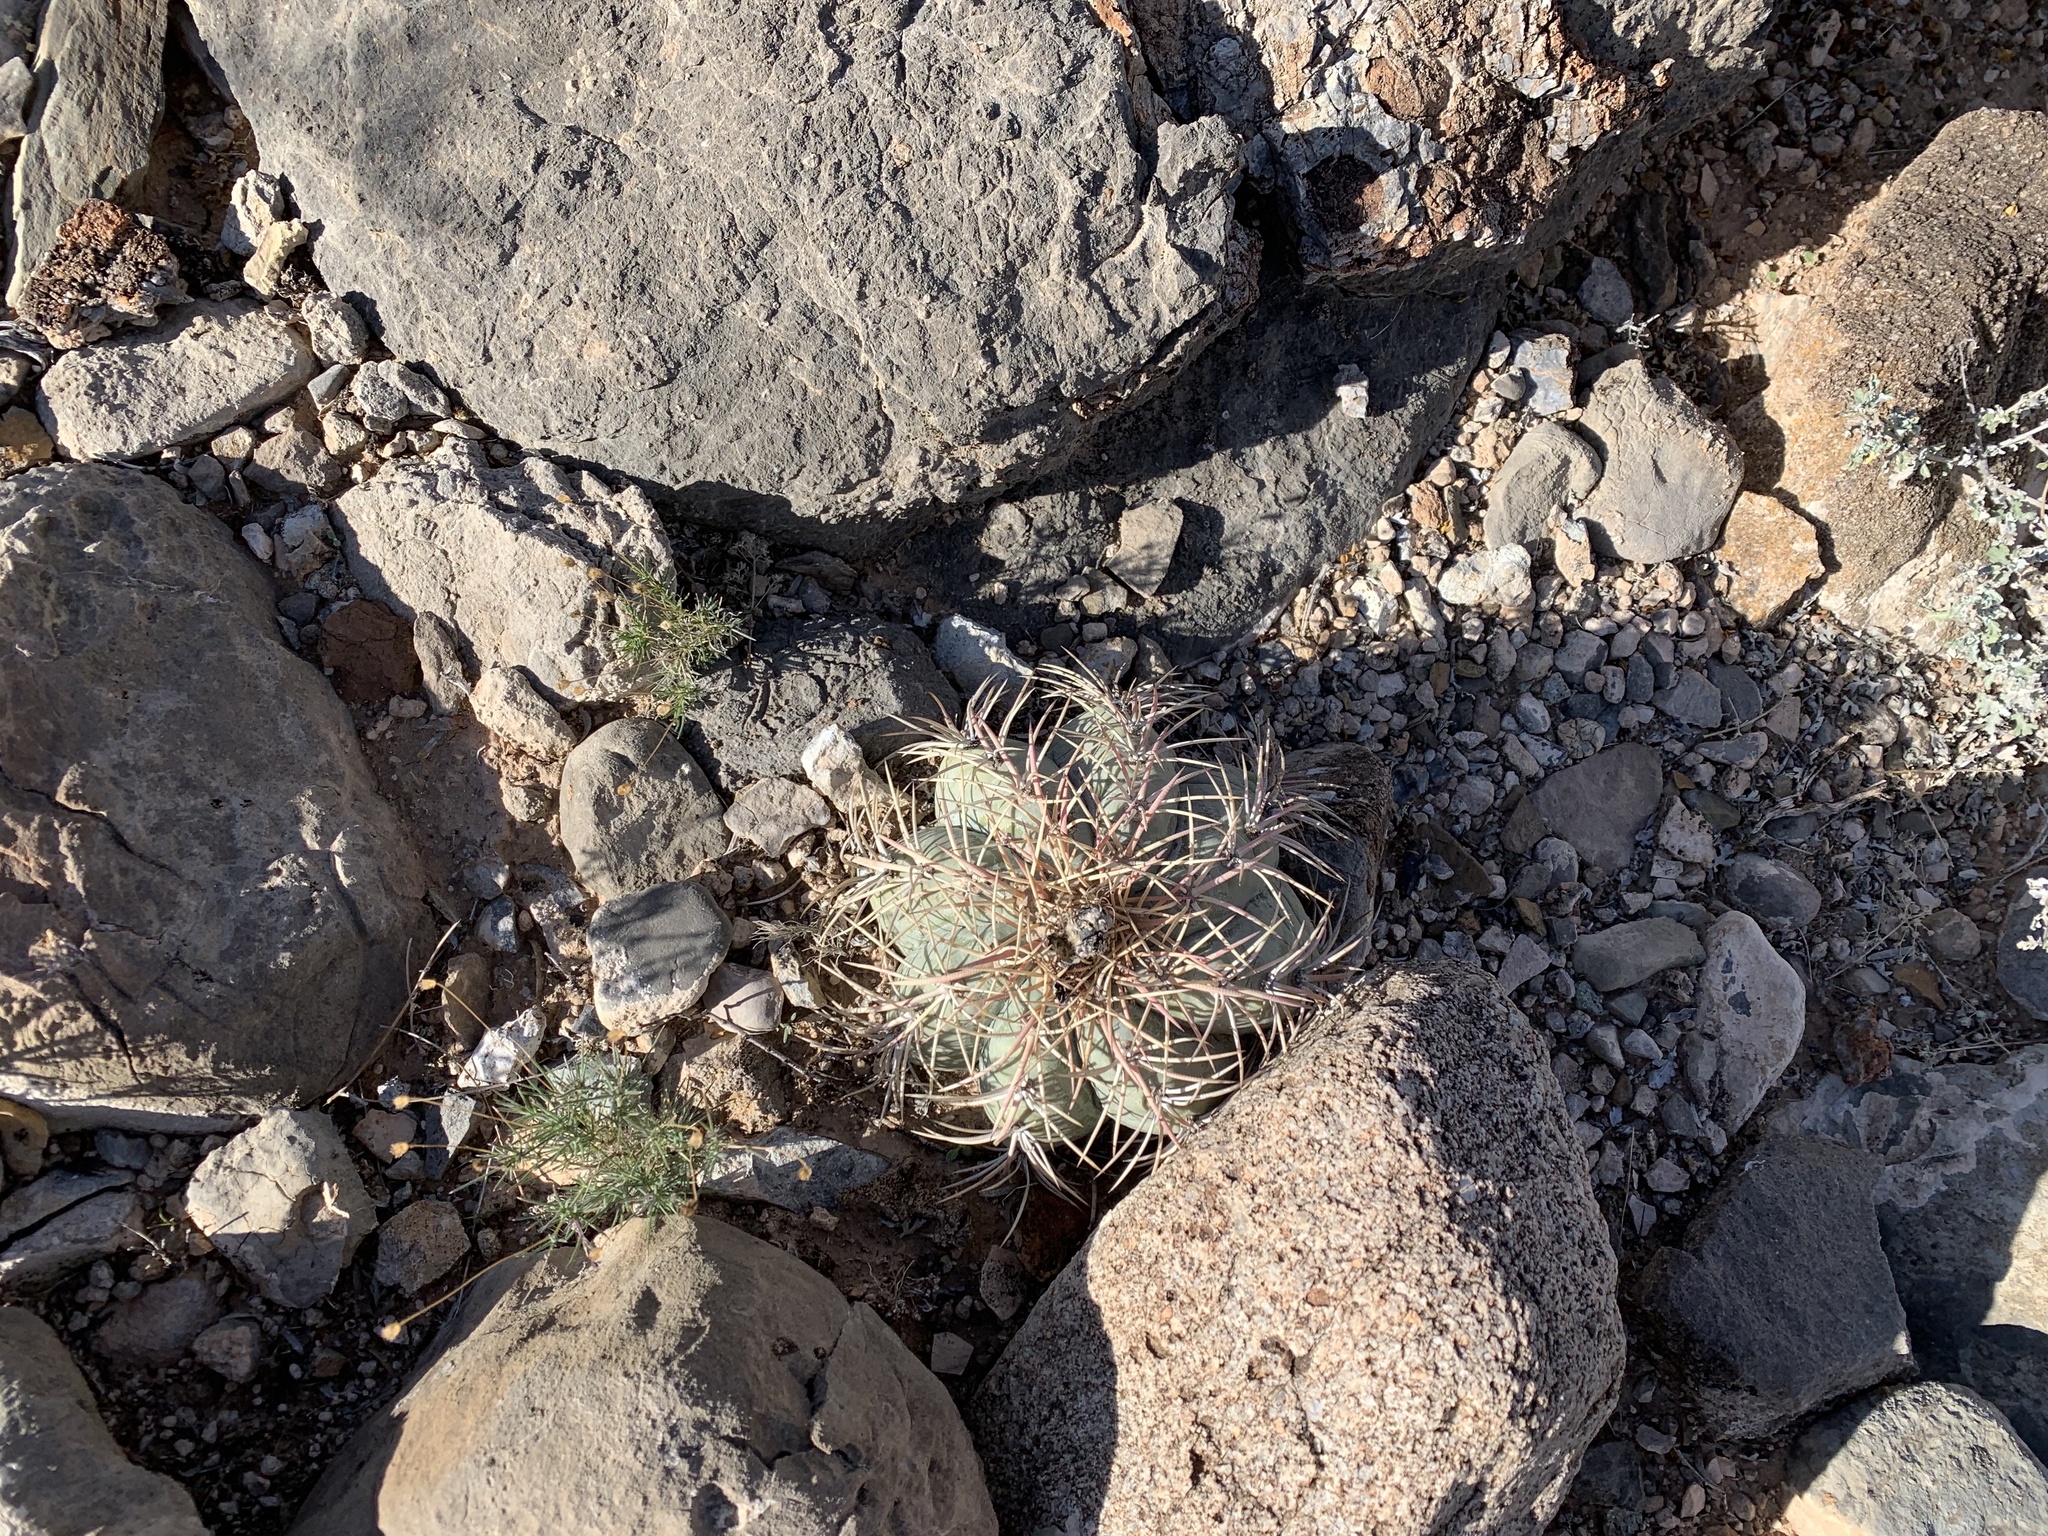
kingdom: Plantae
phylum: Tracheophyta
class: Magnoliopsida
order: Caryophyllales
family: Cactaceae
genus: Echinocactus
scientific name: Echinocactus horizonthalonius
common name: Devilshead
